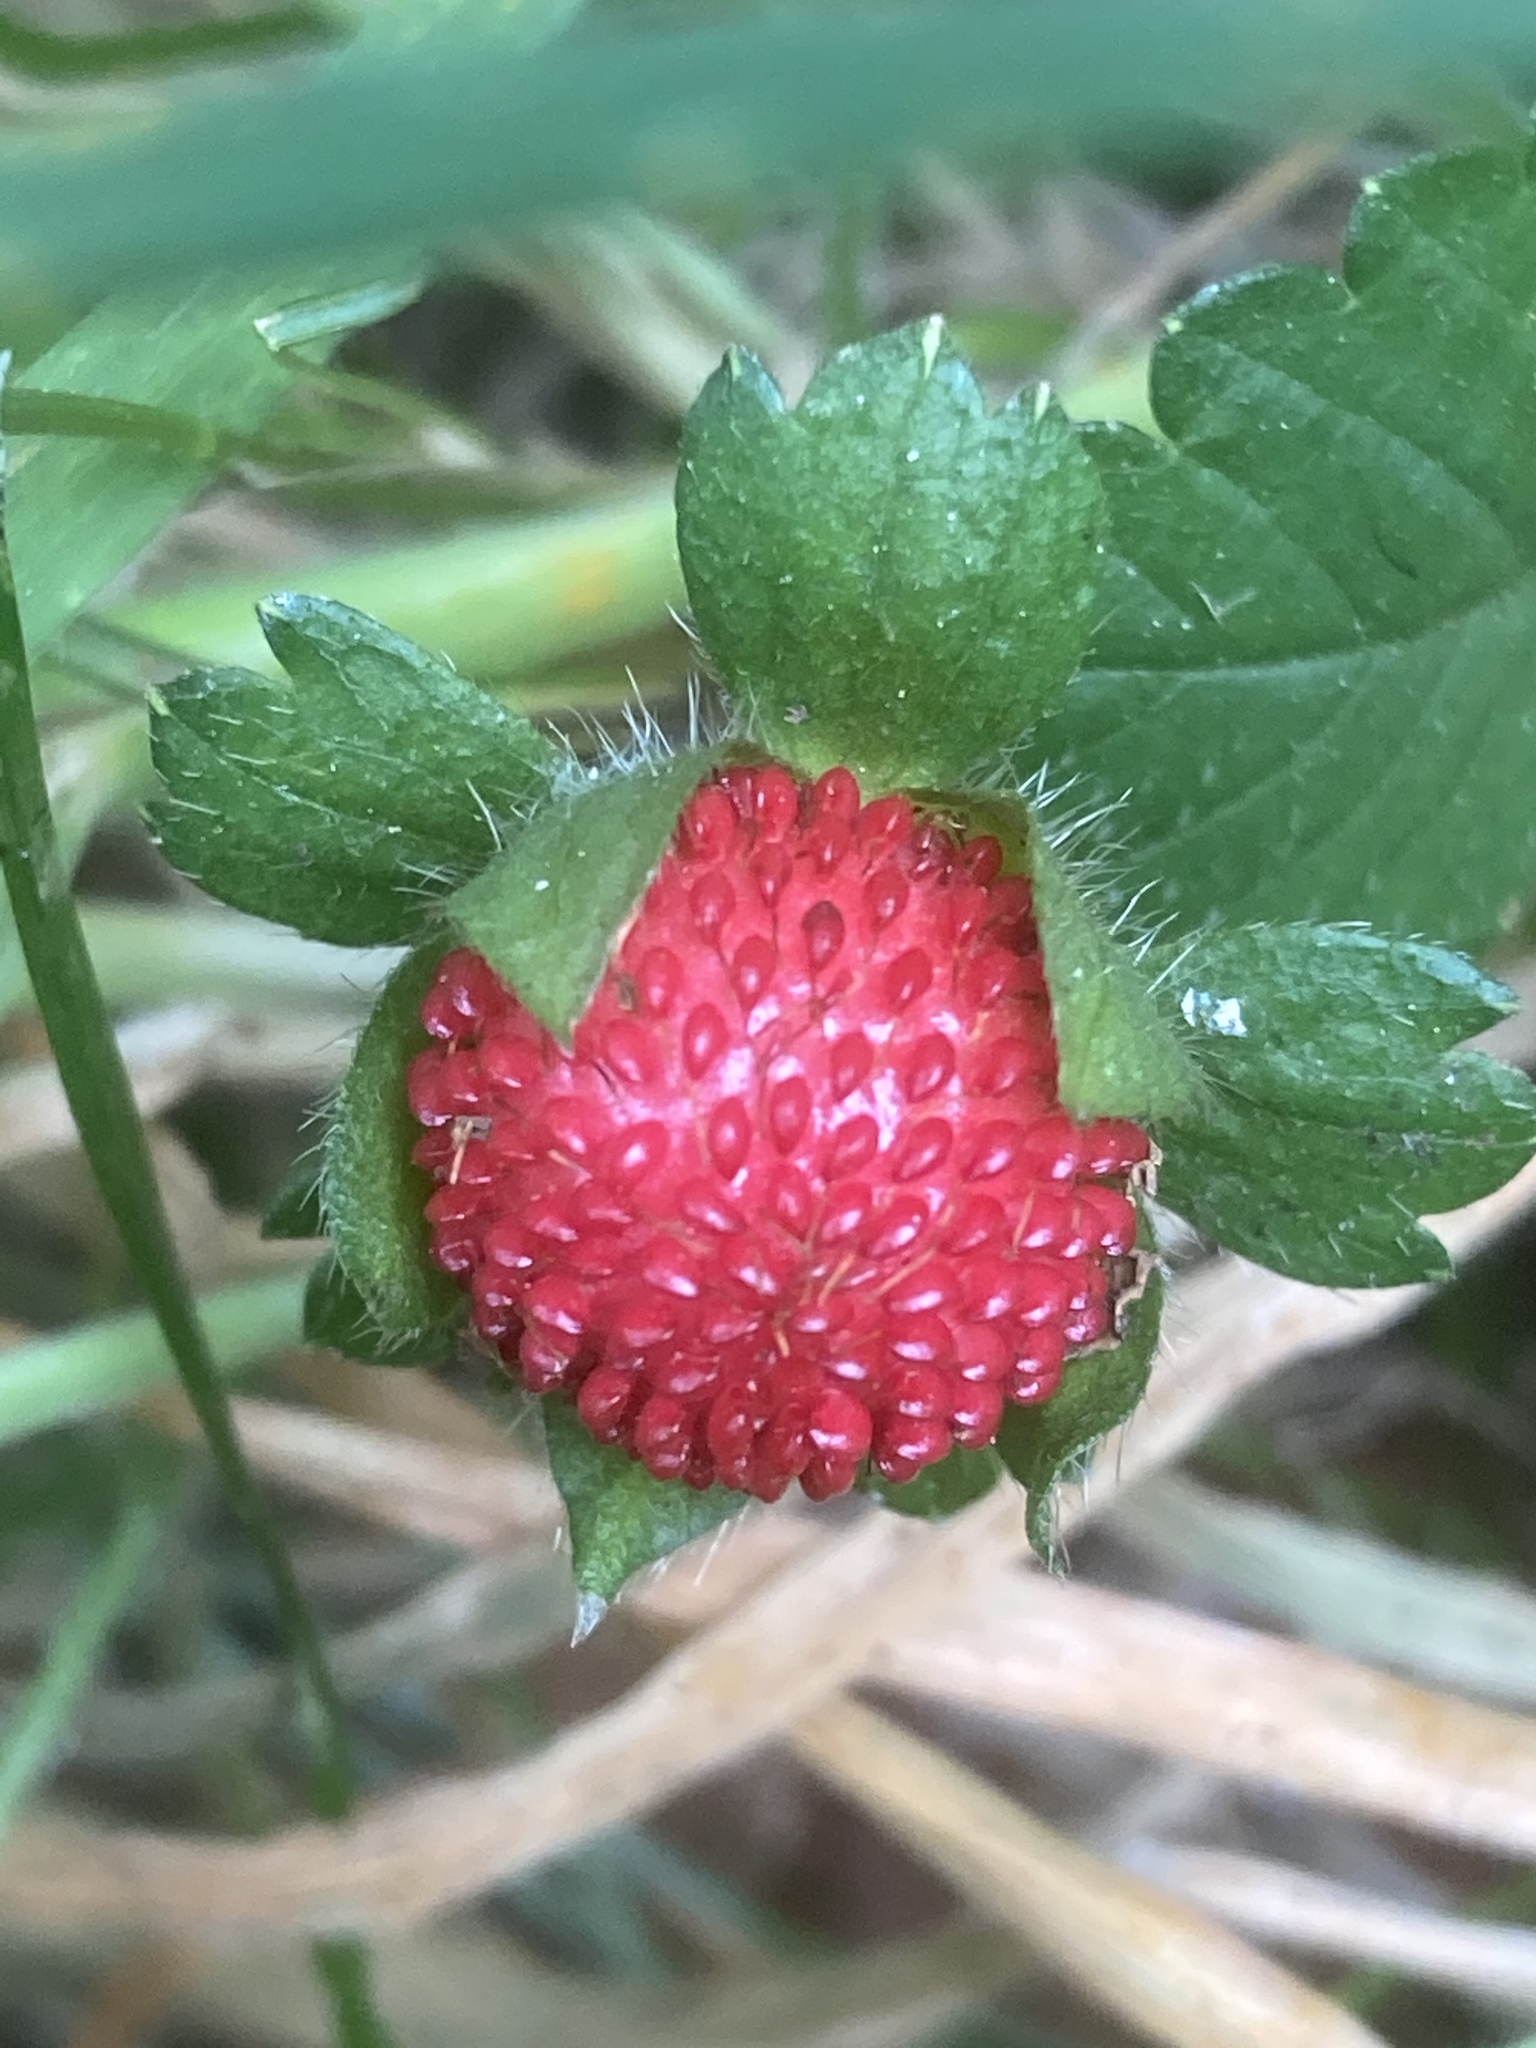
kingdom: Plantae
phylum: Tracheophyta
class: Magnoliopsida
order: Rosales
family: Rosaceae
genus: Potentilla
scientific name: Potentilla indica
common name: Yellow-flowered strawberry
